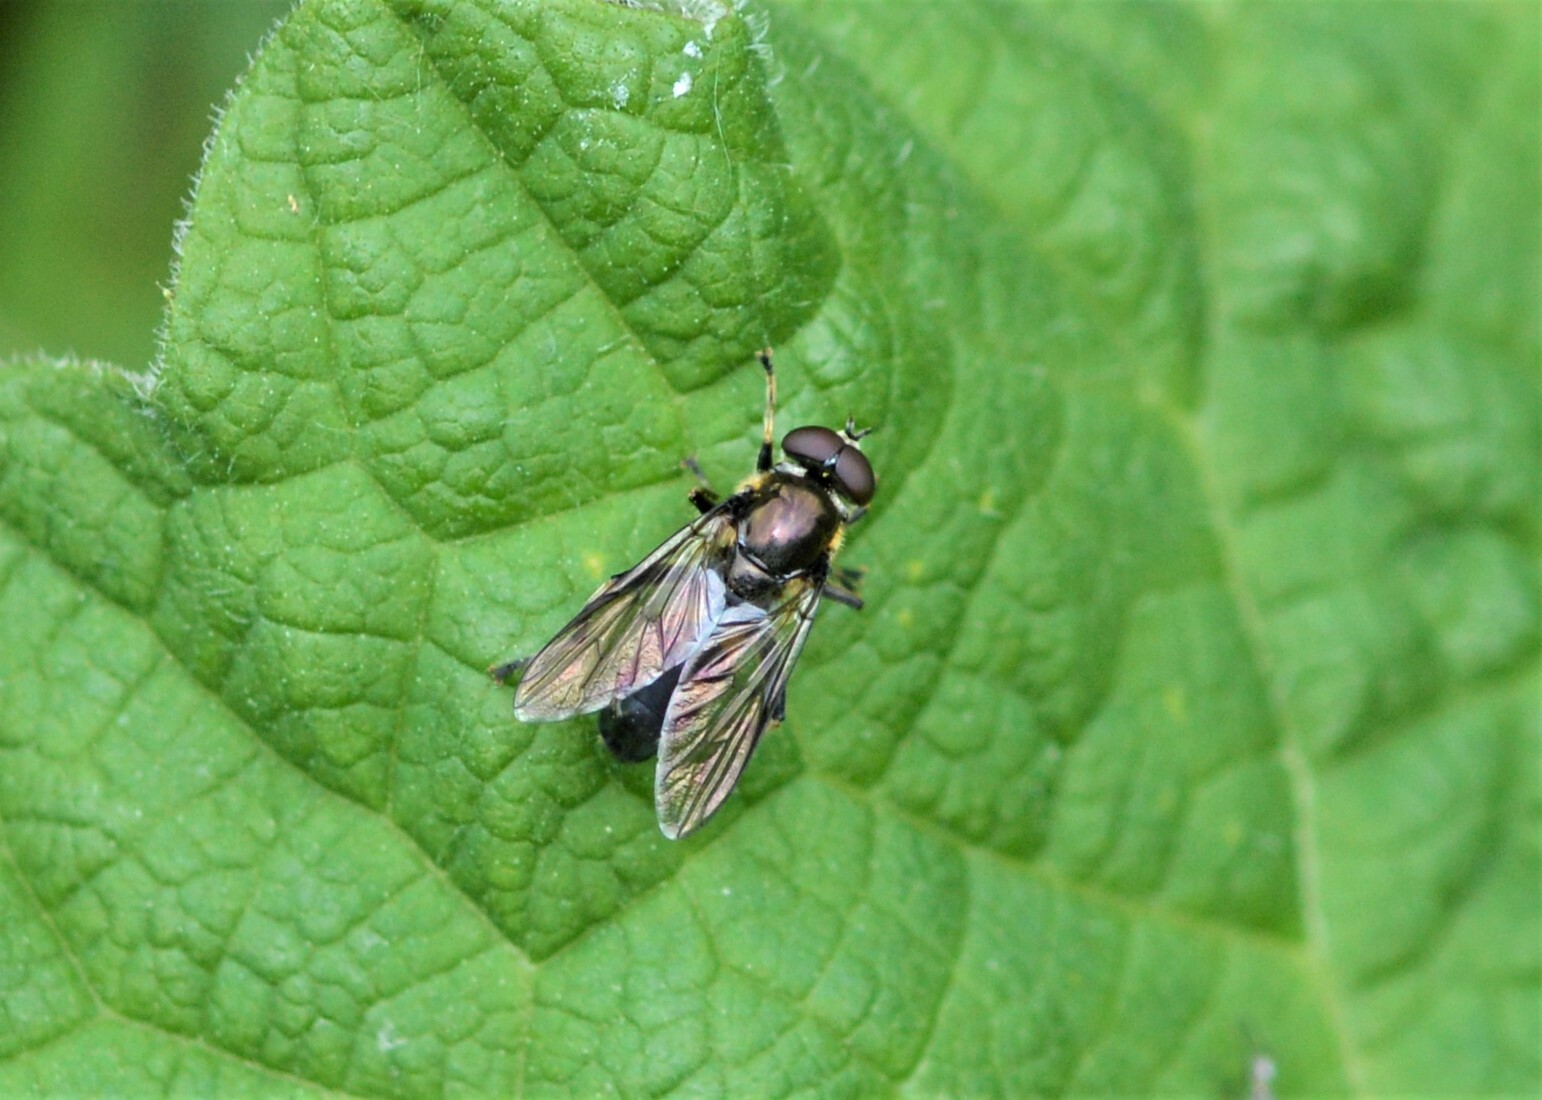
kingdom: Animalia
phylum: Arthropoda
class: Insecta
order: Diptera
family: Syrphidae
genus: Xylota
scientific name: Xylota
